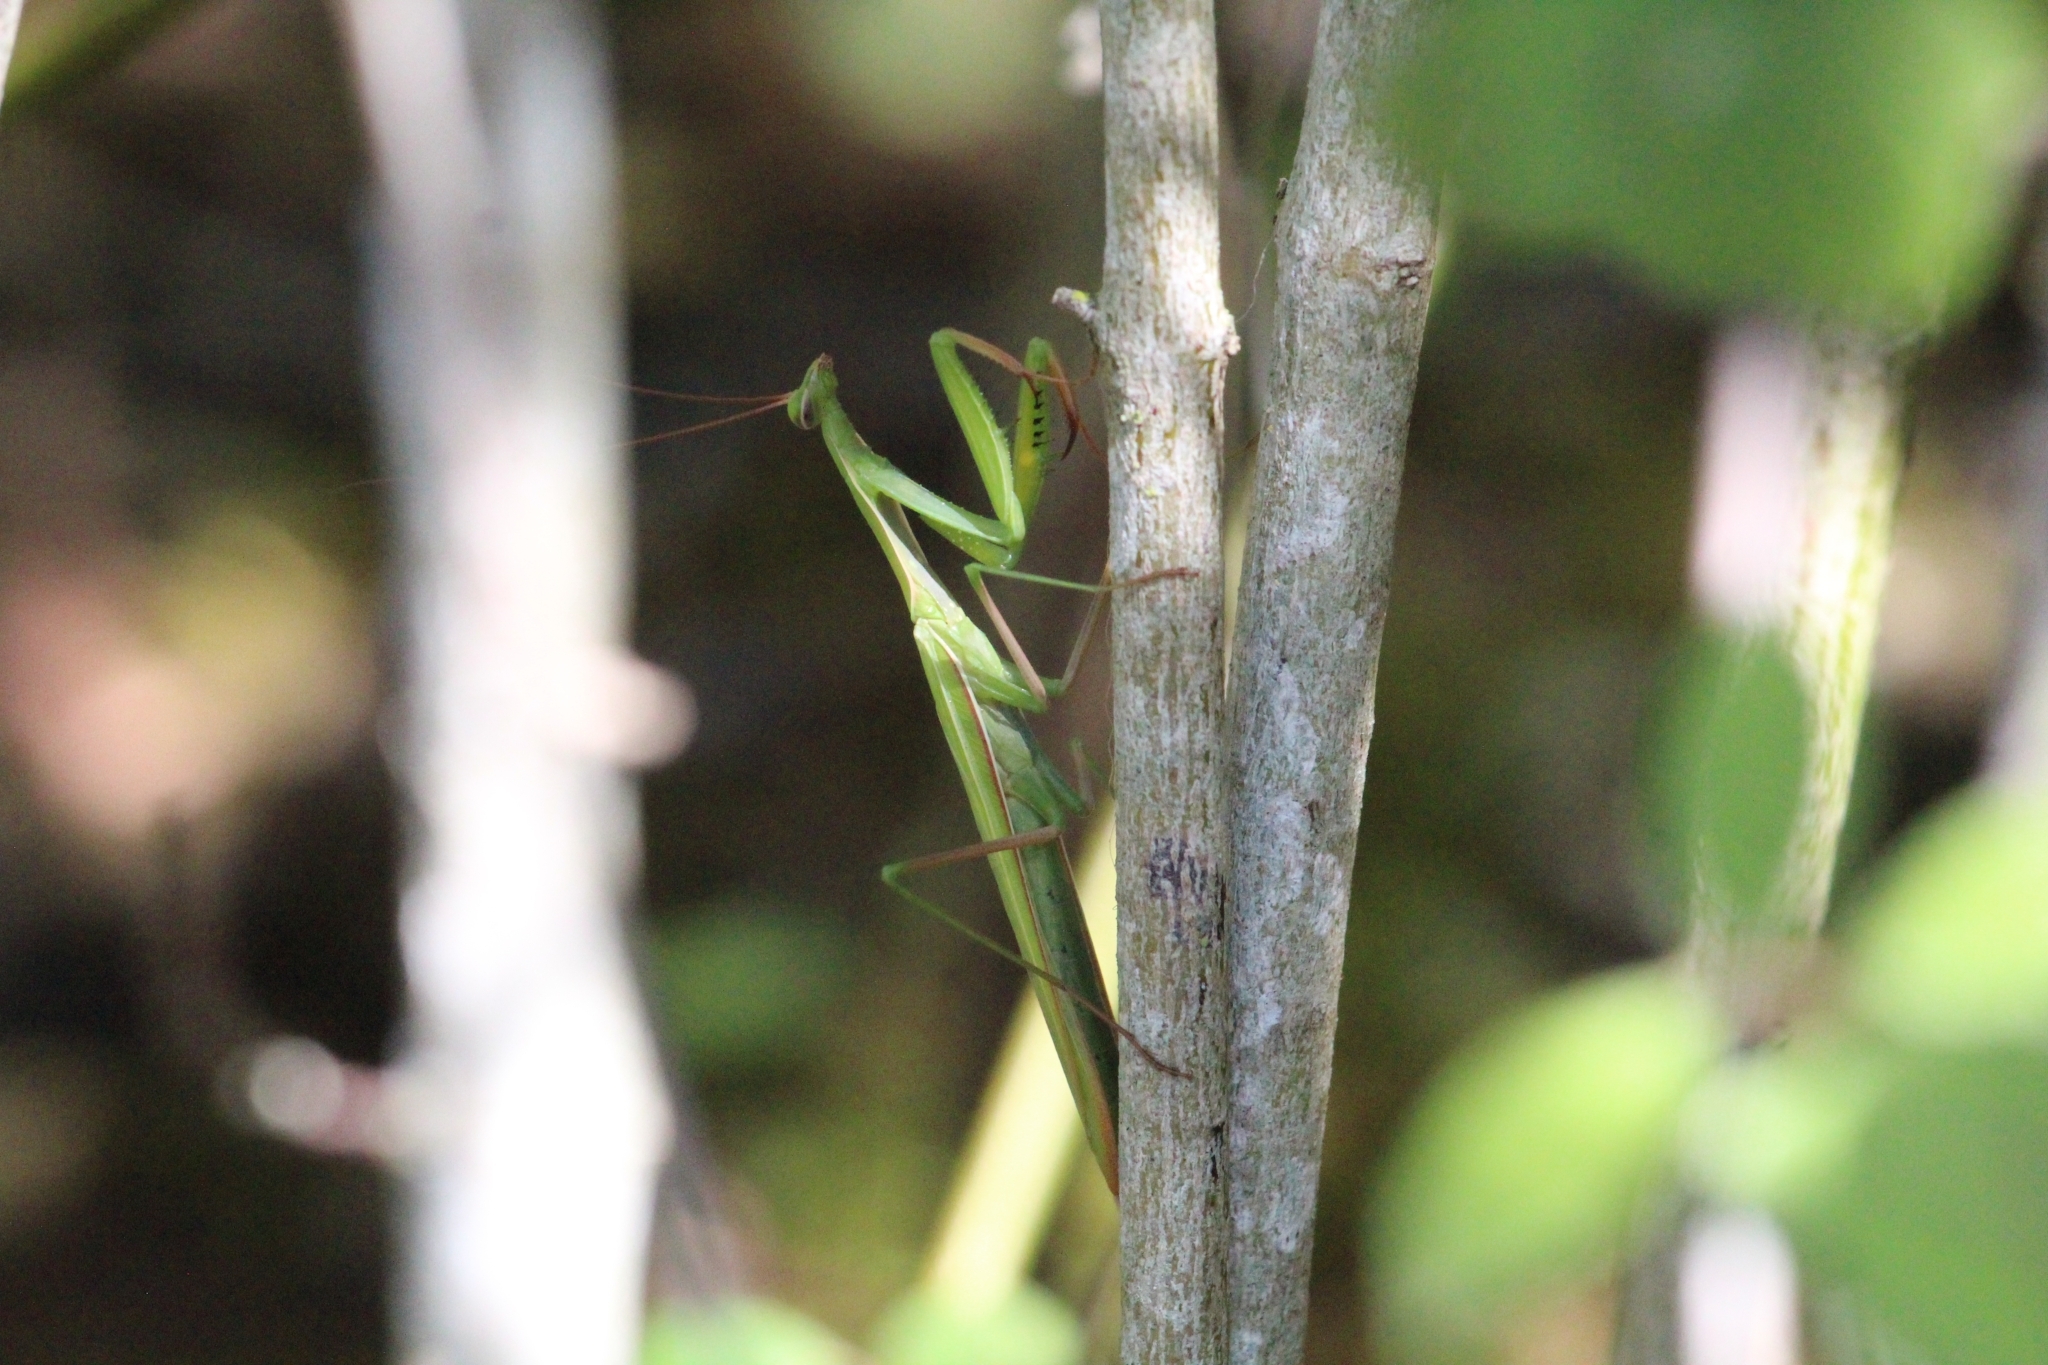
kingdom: Animalia
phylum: Arthropoda
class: Insecta
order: Mantodea
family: Mantidae
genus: Mantis
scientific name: Mantis religiosa
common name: Praying mantis
